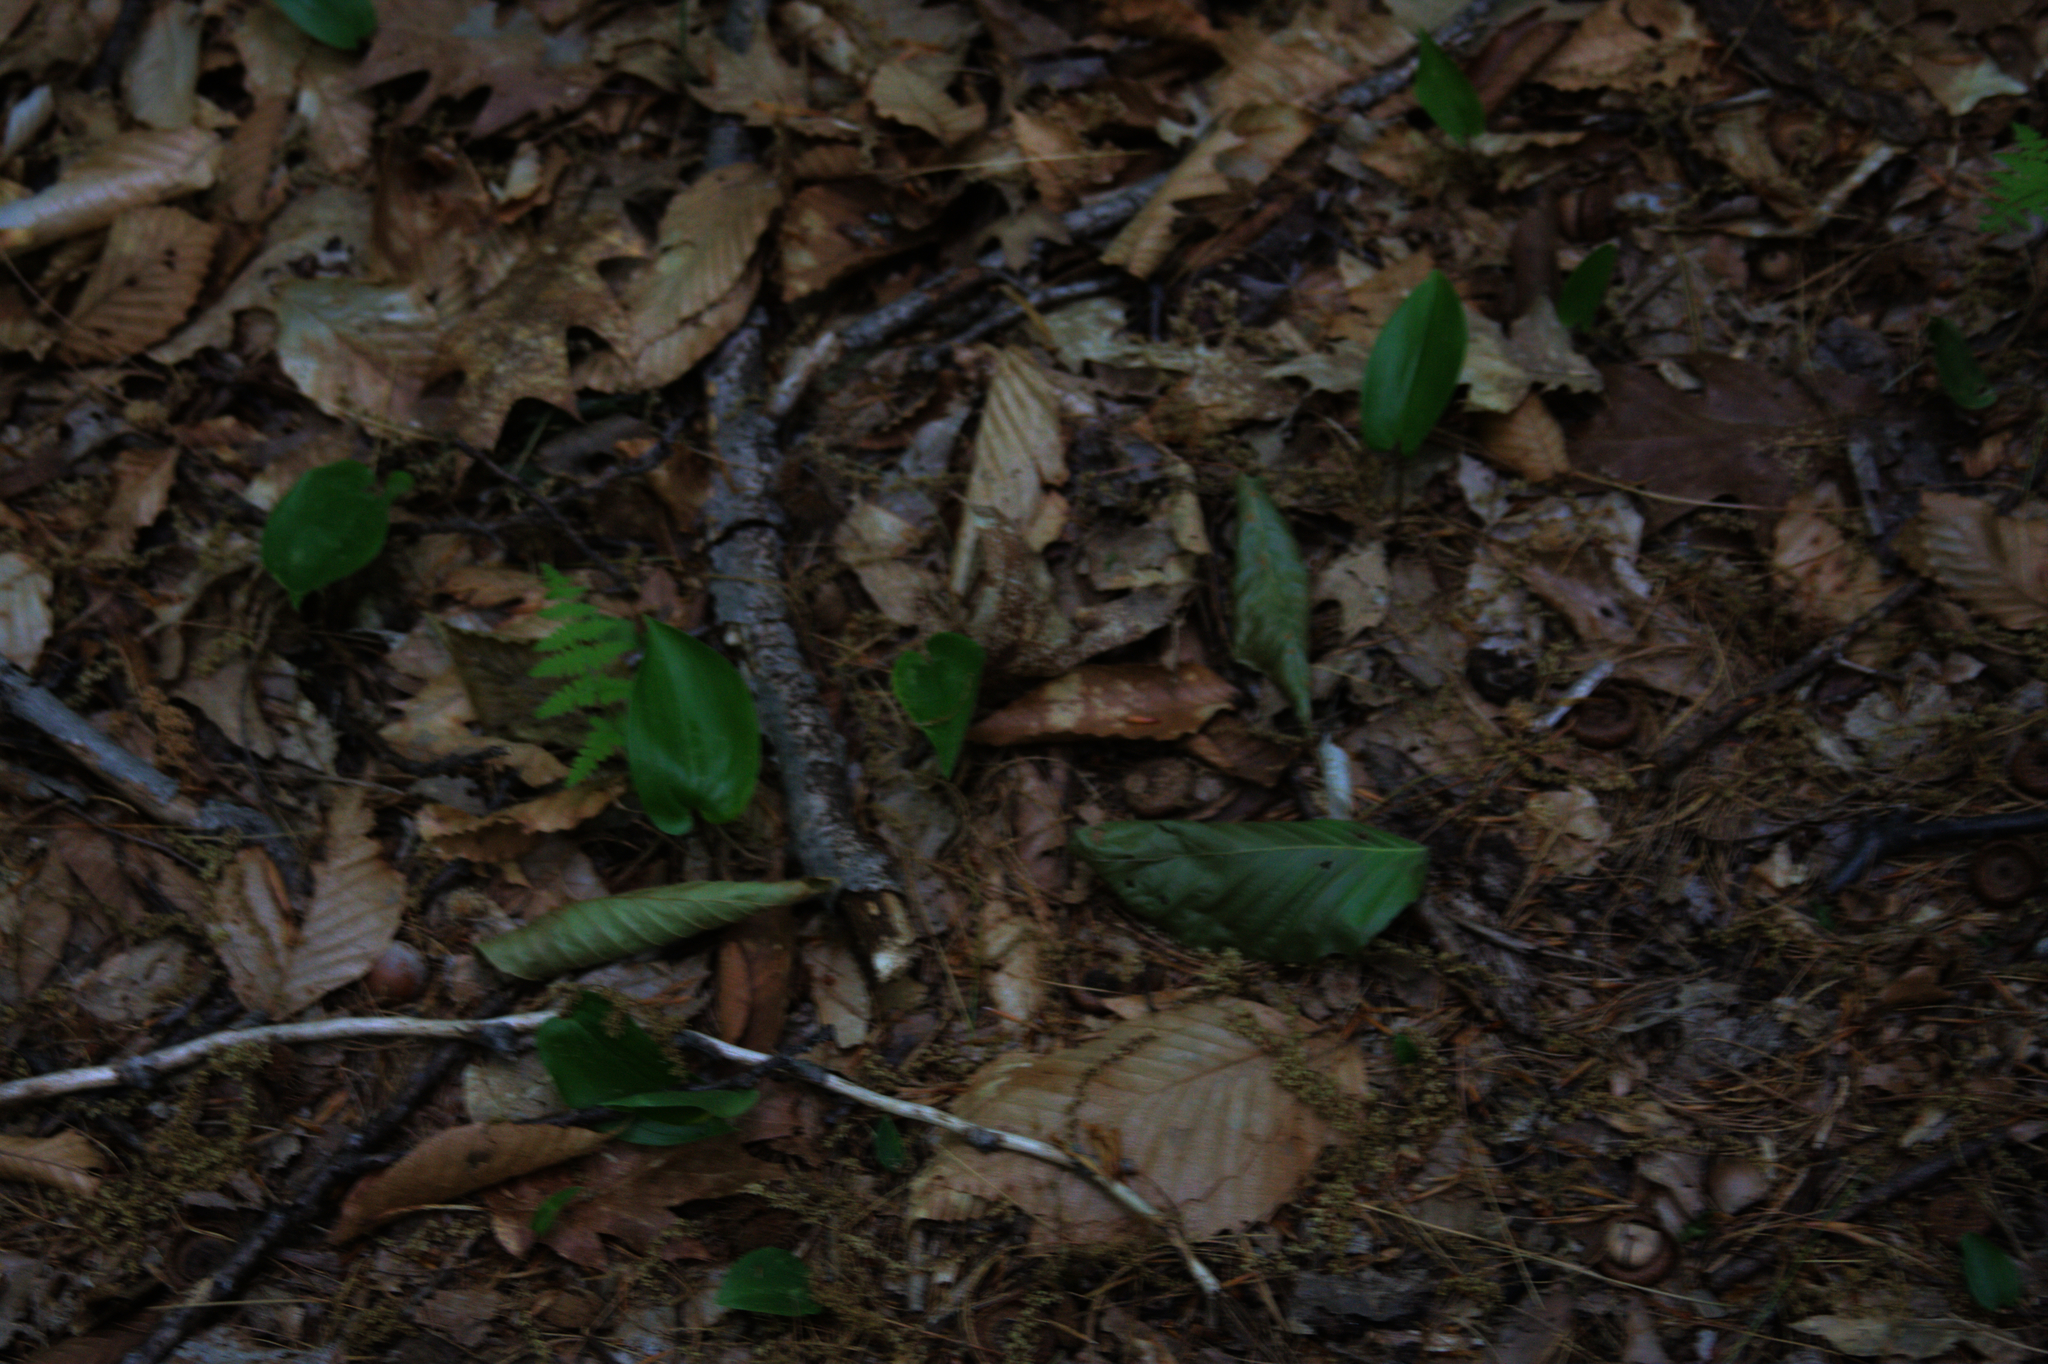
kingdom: Plantae
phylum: Tracheophyta
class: Liliopsida
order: Asparagales
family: Asparagaceae
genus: Maianthemum
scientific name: Maianthemum canadense
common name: False lily-of-the-valley
